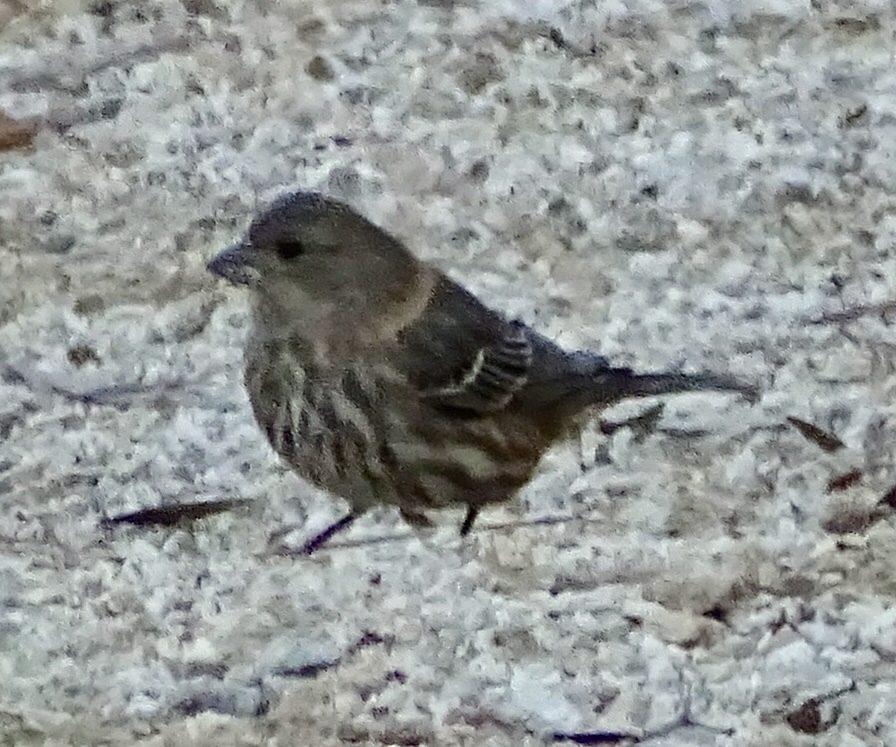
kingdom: Animalia
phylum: Chordata
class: Aves
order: Passeriformes
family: Fringillidae
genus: Haemorhous
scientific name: Haemorhous mexicanus
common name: House finch
